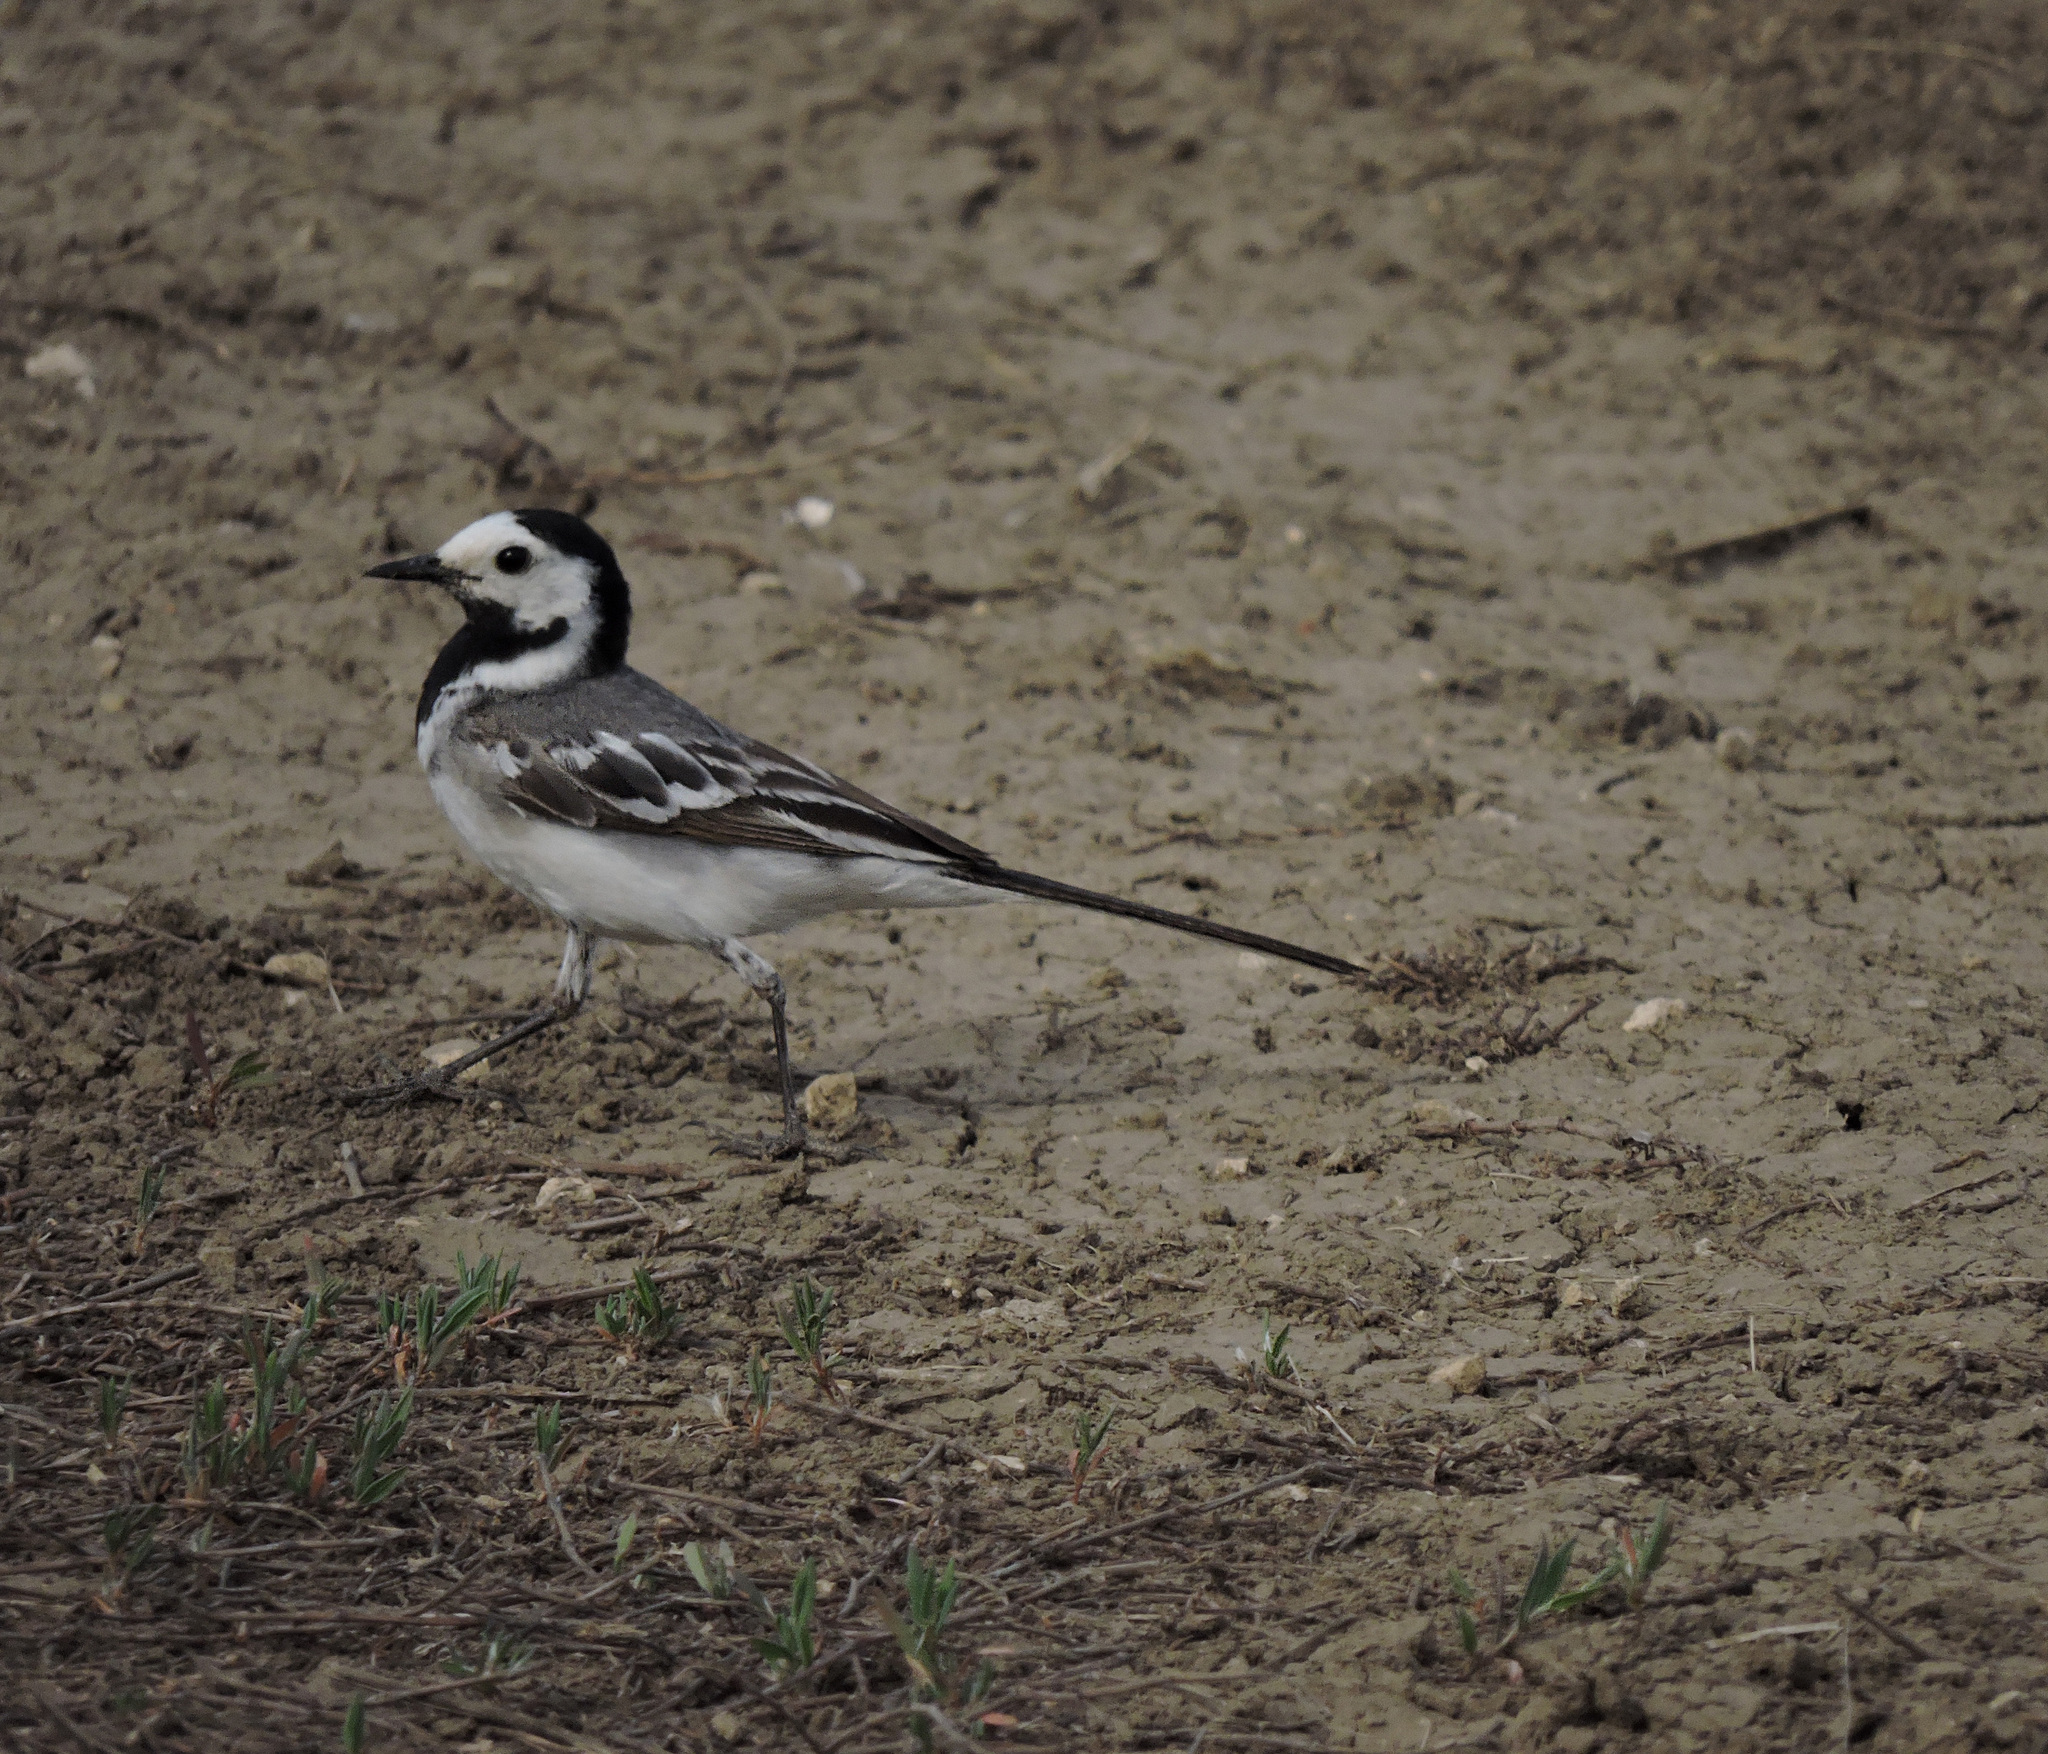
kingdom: Animalia
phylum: Chordata
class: Aves
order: Passeriformes
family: Motacillidae
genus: Motacilla
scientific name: Motacilla alba
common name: White wagtail
